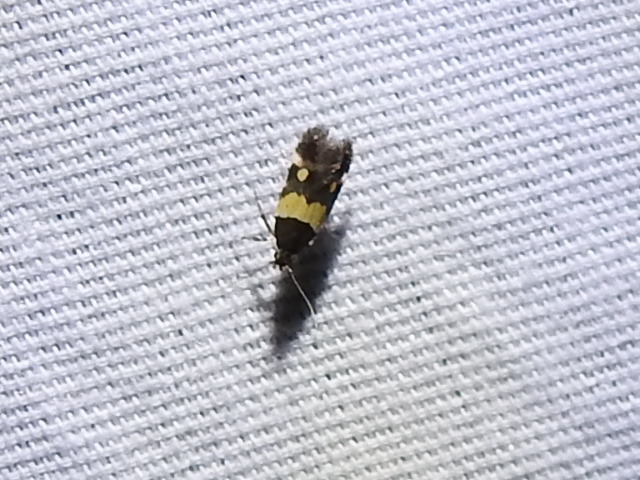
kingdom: Animalia
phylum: Arthropoda
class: Insecta
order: Lepidoptera
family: Momphidae
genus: Triclonella
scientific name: Triclonella determinatella
